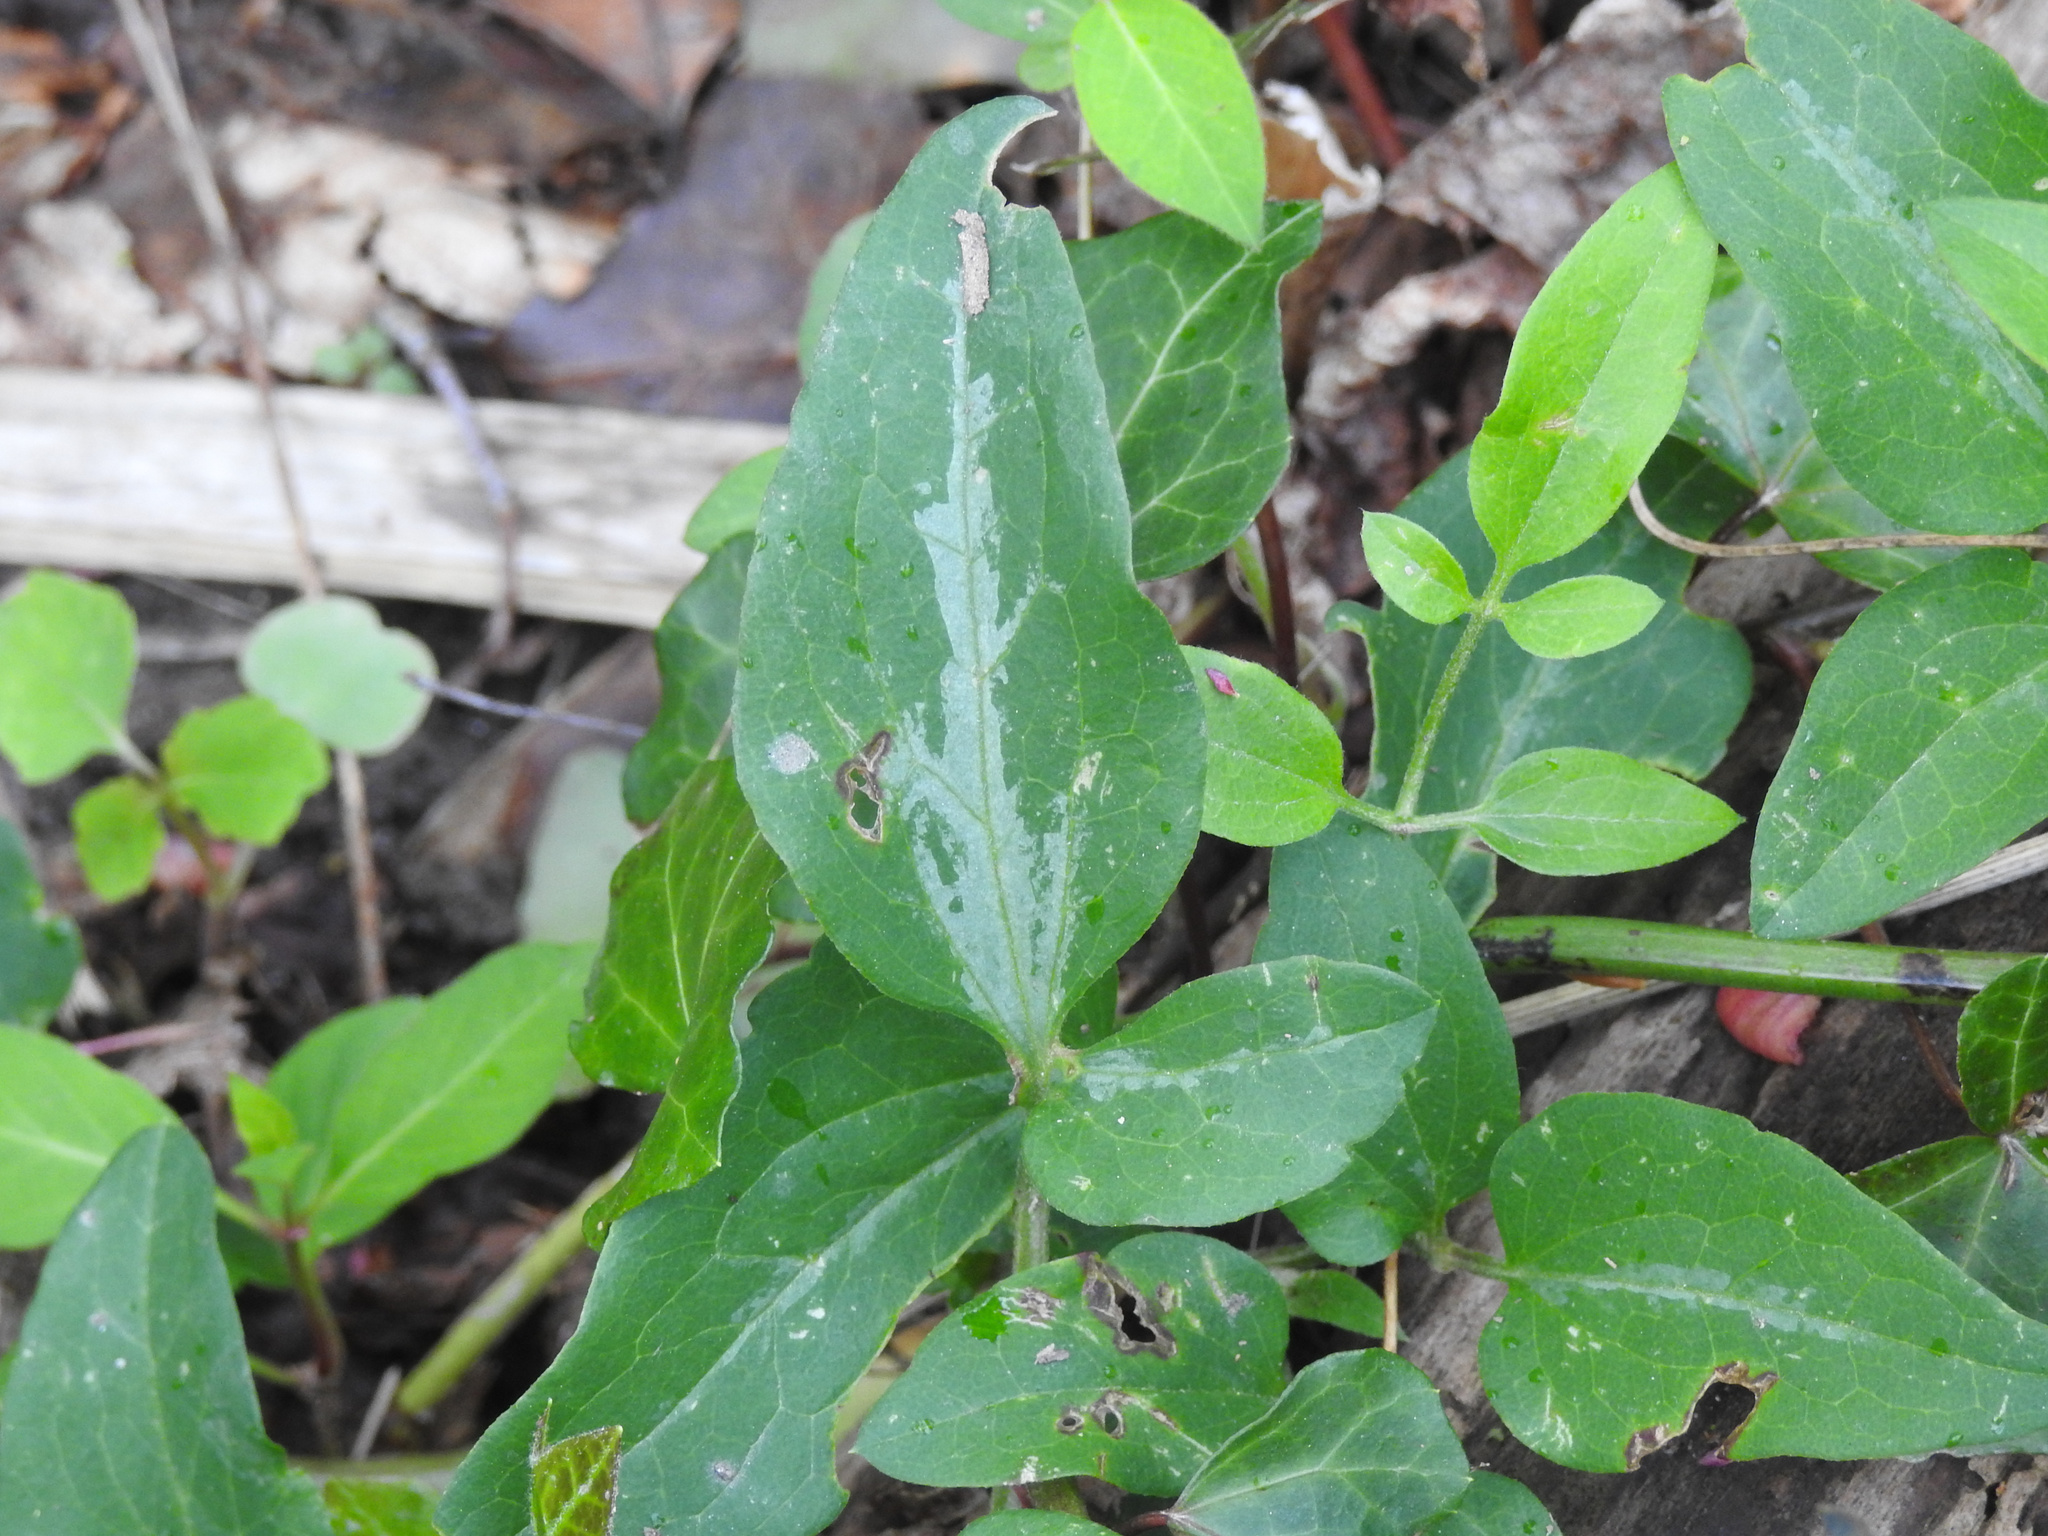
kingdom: Plantae
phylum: Tracheophyta
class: Magnoliopsida
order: Ranunculales
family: Ranunculaceae
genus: Clematis
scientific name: Clematis terniflora
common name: Sweet autumn clematis
